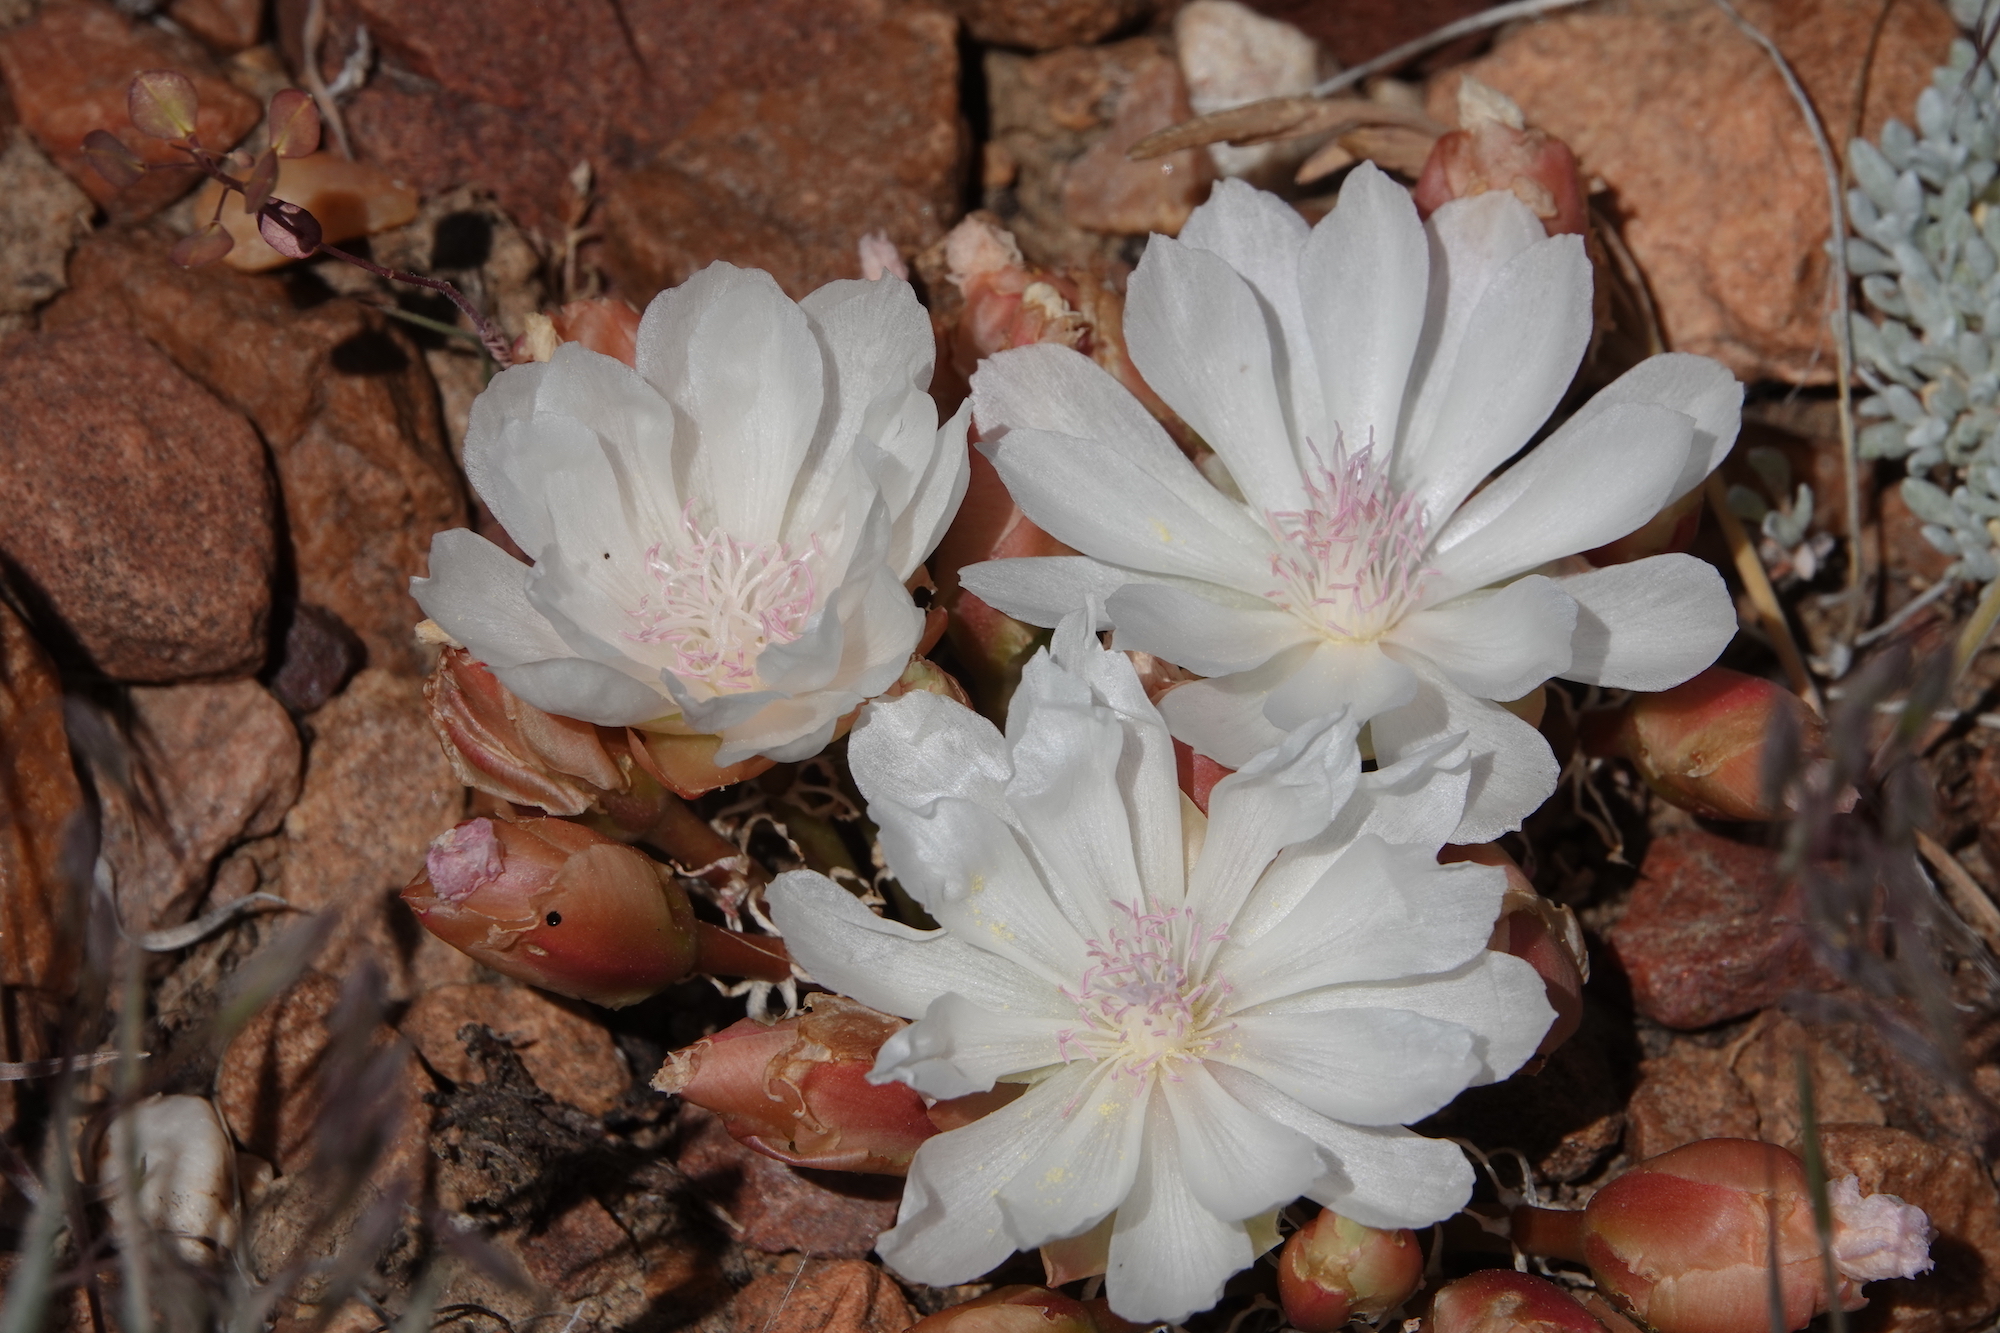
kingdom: Plantae
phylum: Tracheophyta
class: Magnoliopsida
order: Caryophyllales
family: Montiaceae
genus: Lewisia
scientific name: Lewisia rediviva
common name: Bitter-root
